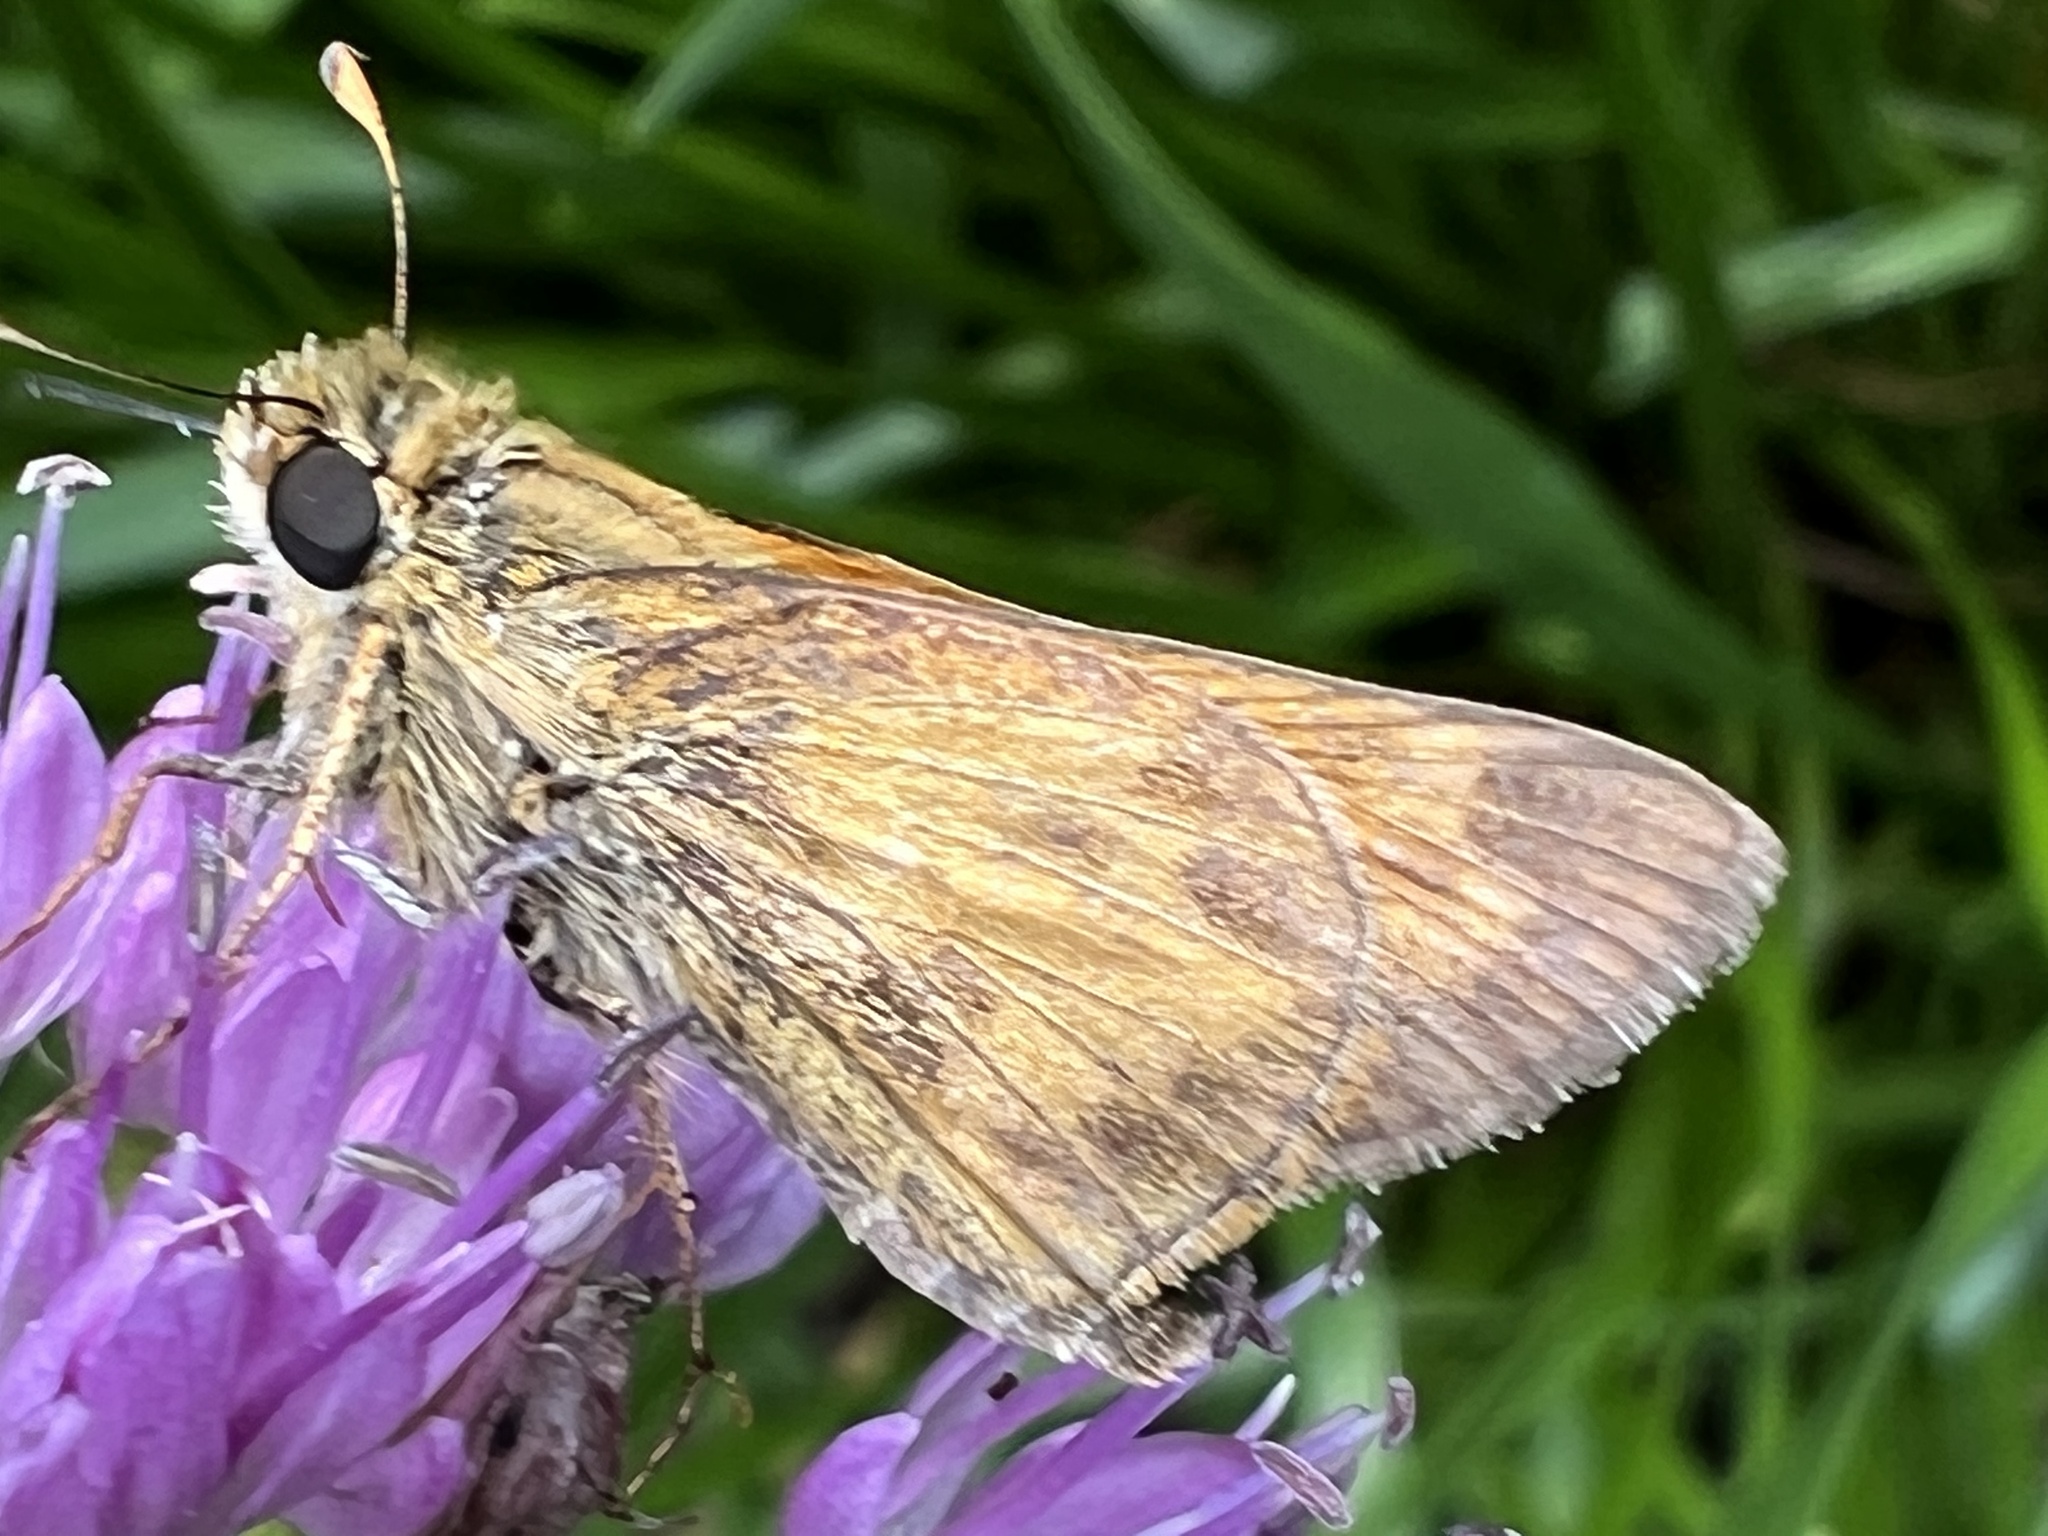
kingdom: Animalia
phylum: Arthropoda
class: Insecta
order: Lepidoptera
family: Hesperiidae
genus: Atalopedes
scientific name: Atalopedes
